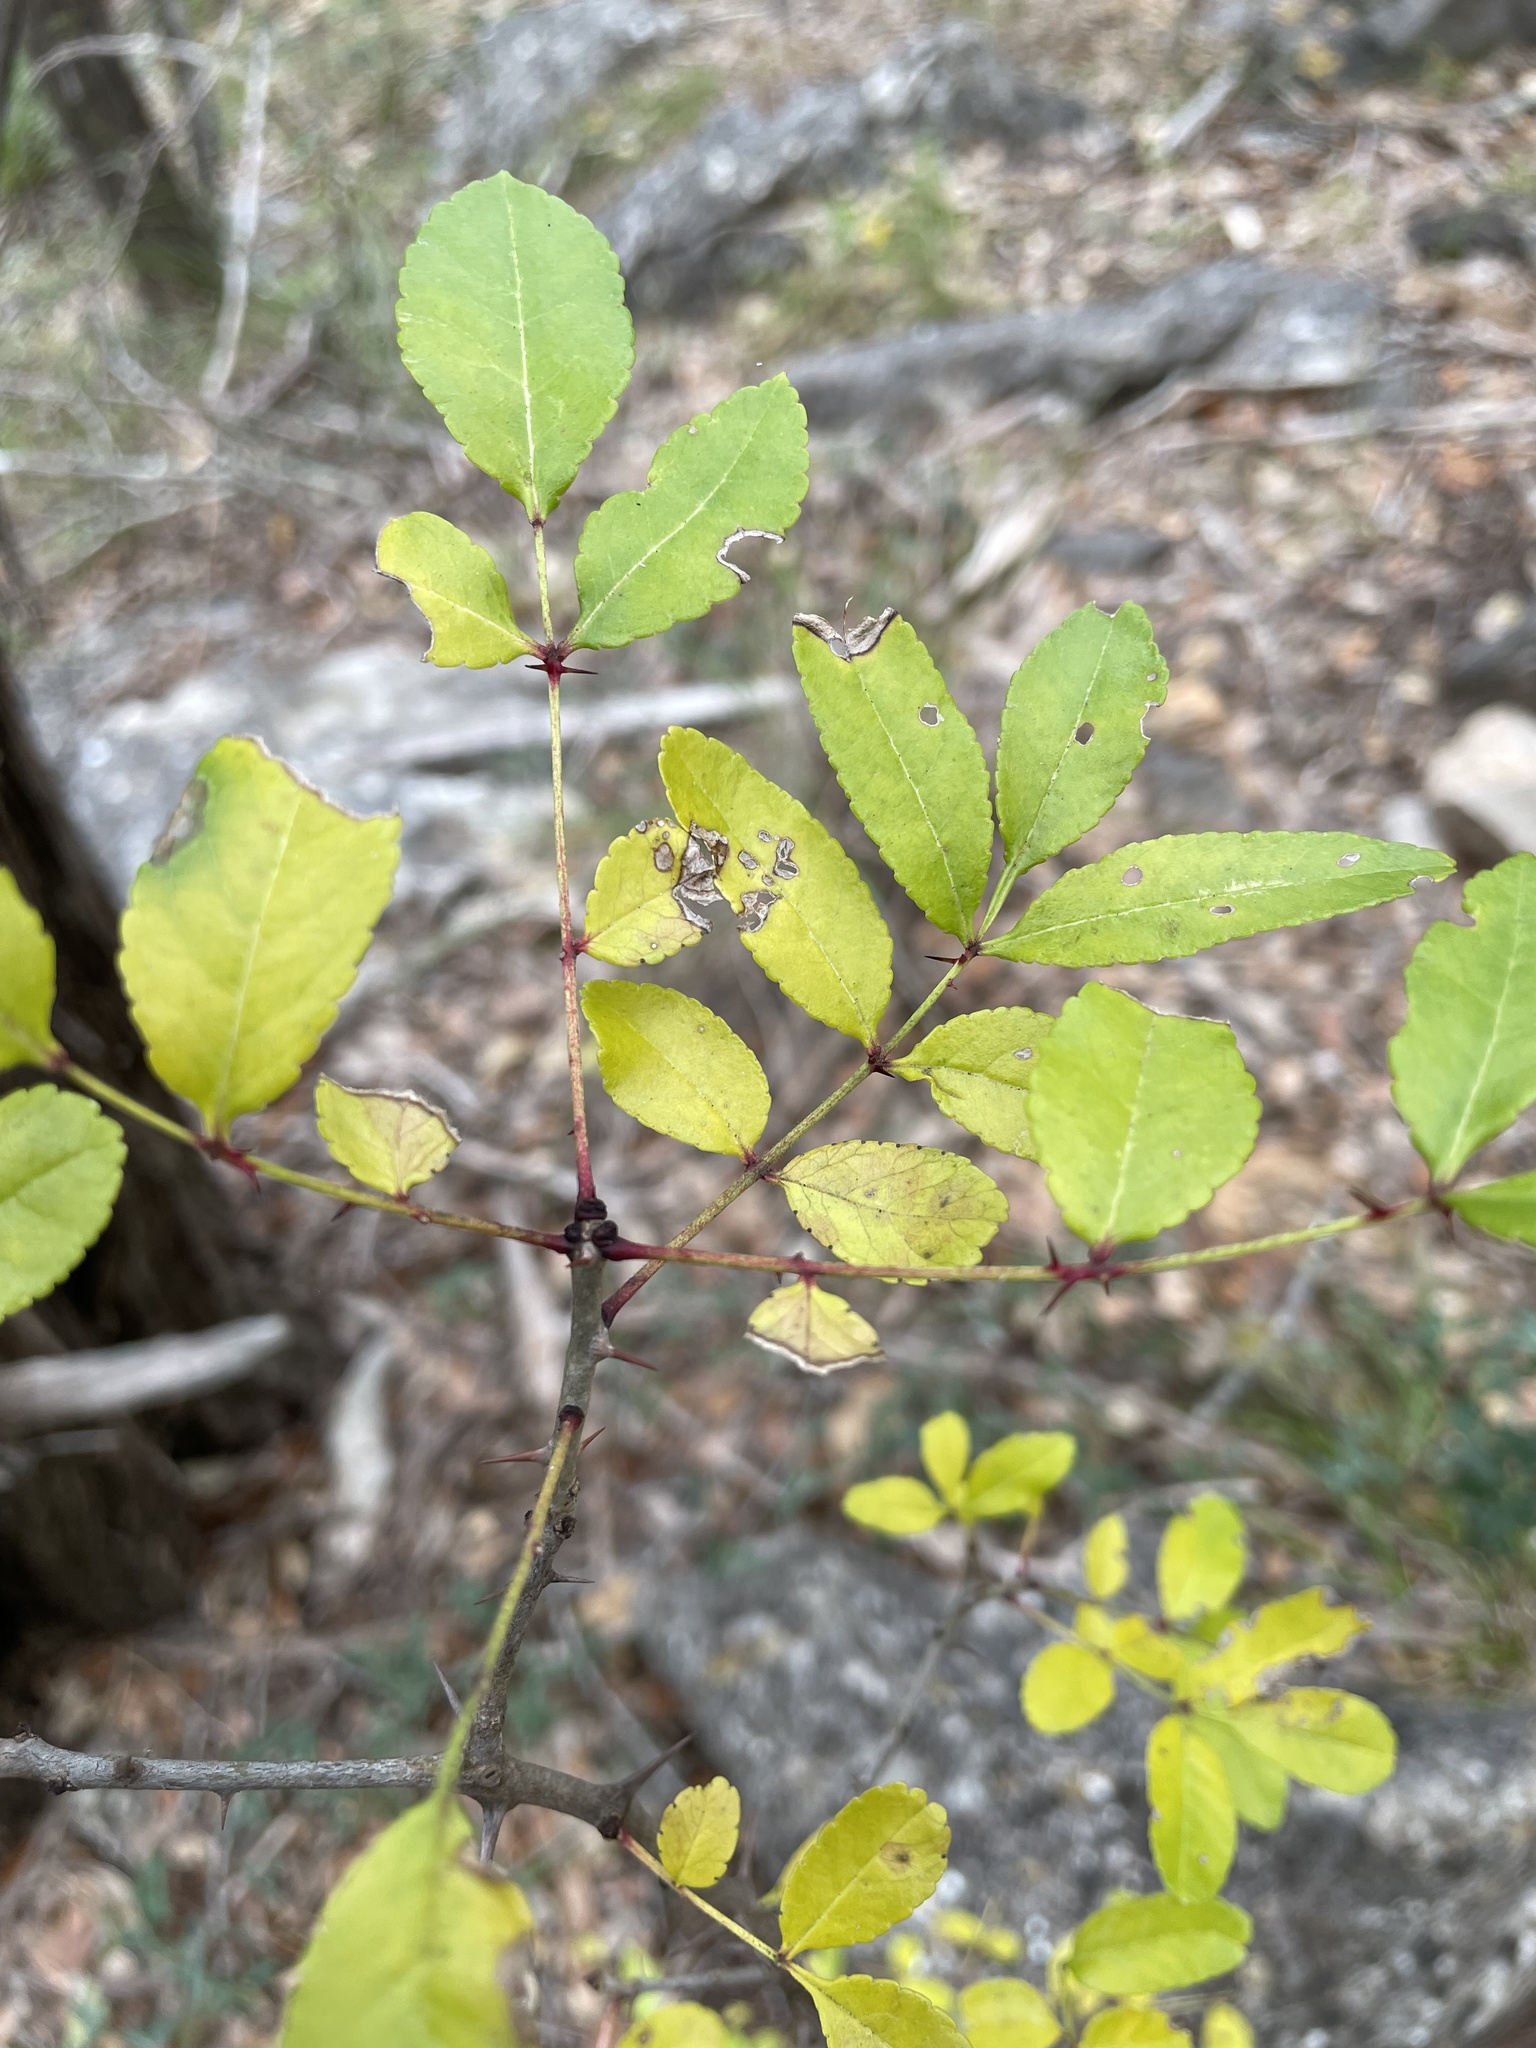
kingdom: Plantae
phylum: Tracheophyta
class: Magnoliopsida
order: Sapindales
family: Rutaceae
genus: Zanthoxylum
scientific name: Zanthoxylum clava-herculis
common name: Hercules'-club
